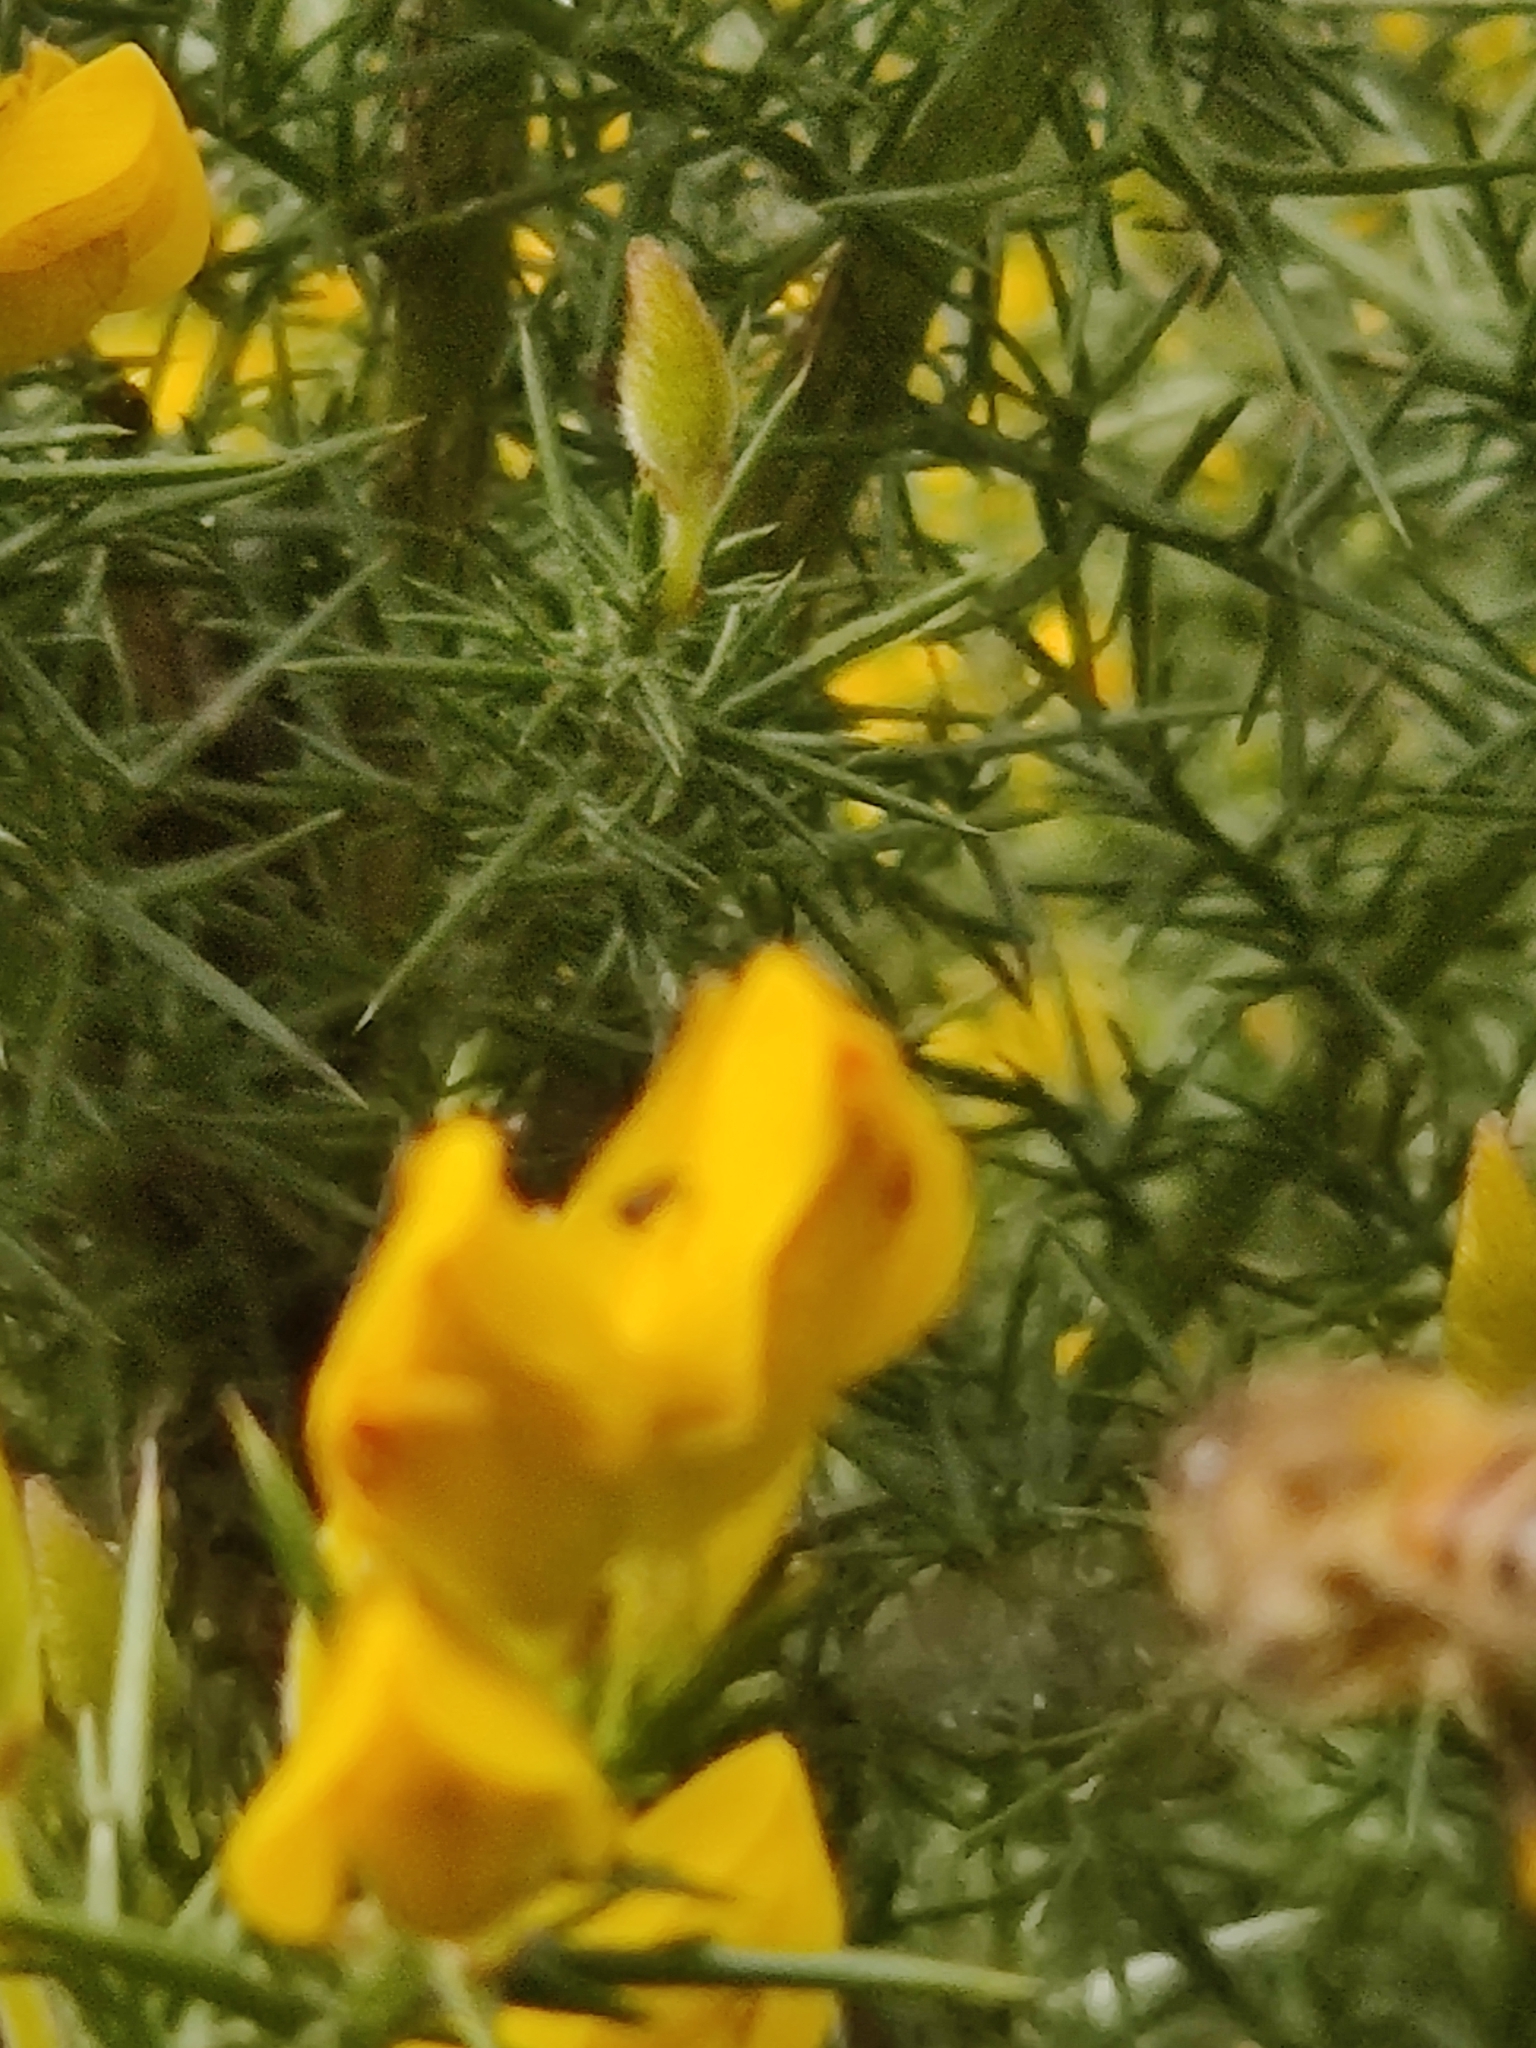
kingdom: Plantae
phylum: Tracheophyta
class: Magnoliopsida
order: Fabales
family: Fabaceae
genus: Ulex
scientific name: Ulex europaeus
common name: Common gorse
